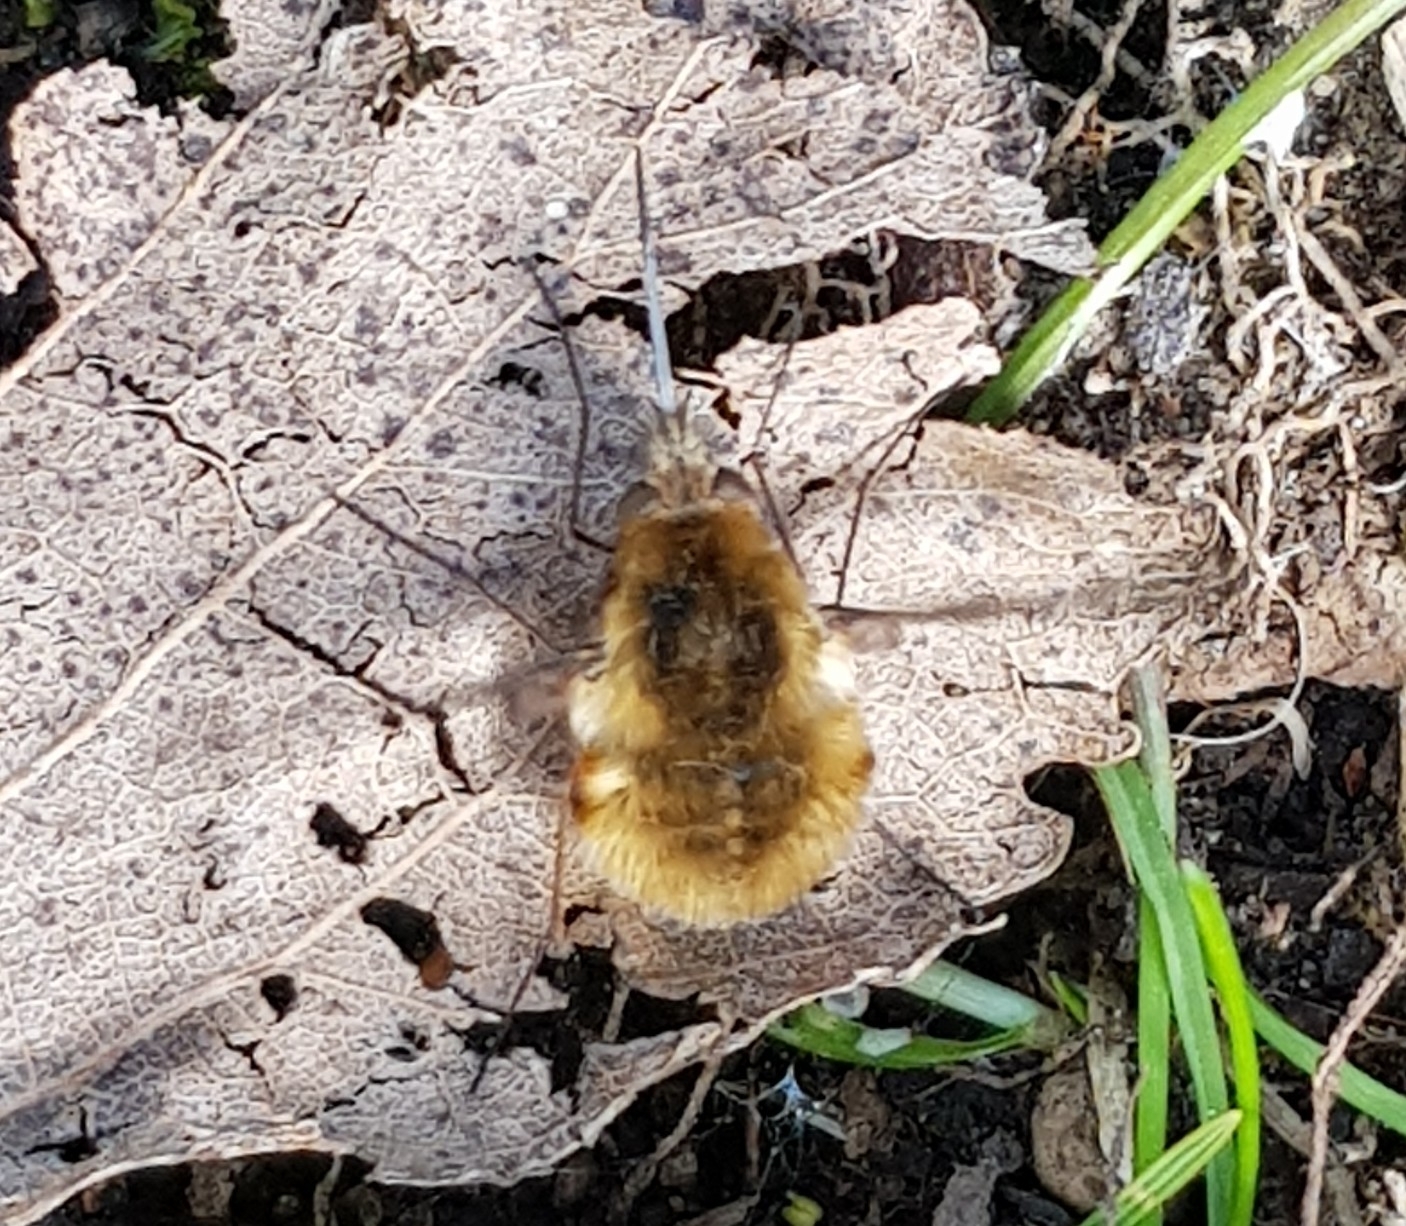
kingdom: Animalia
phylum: Arthropoda
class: Insecta
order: Diptera
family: Bombyliidae
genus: Bombylius
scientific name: Bombylius major
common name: Bee fly
